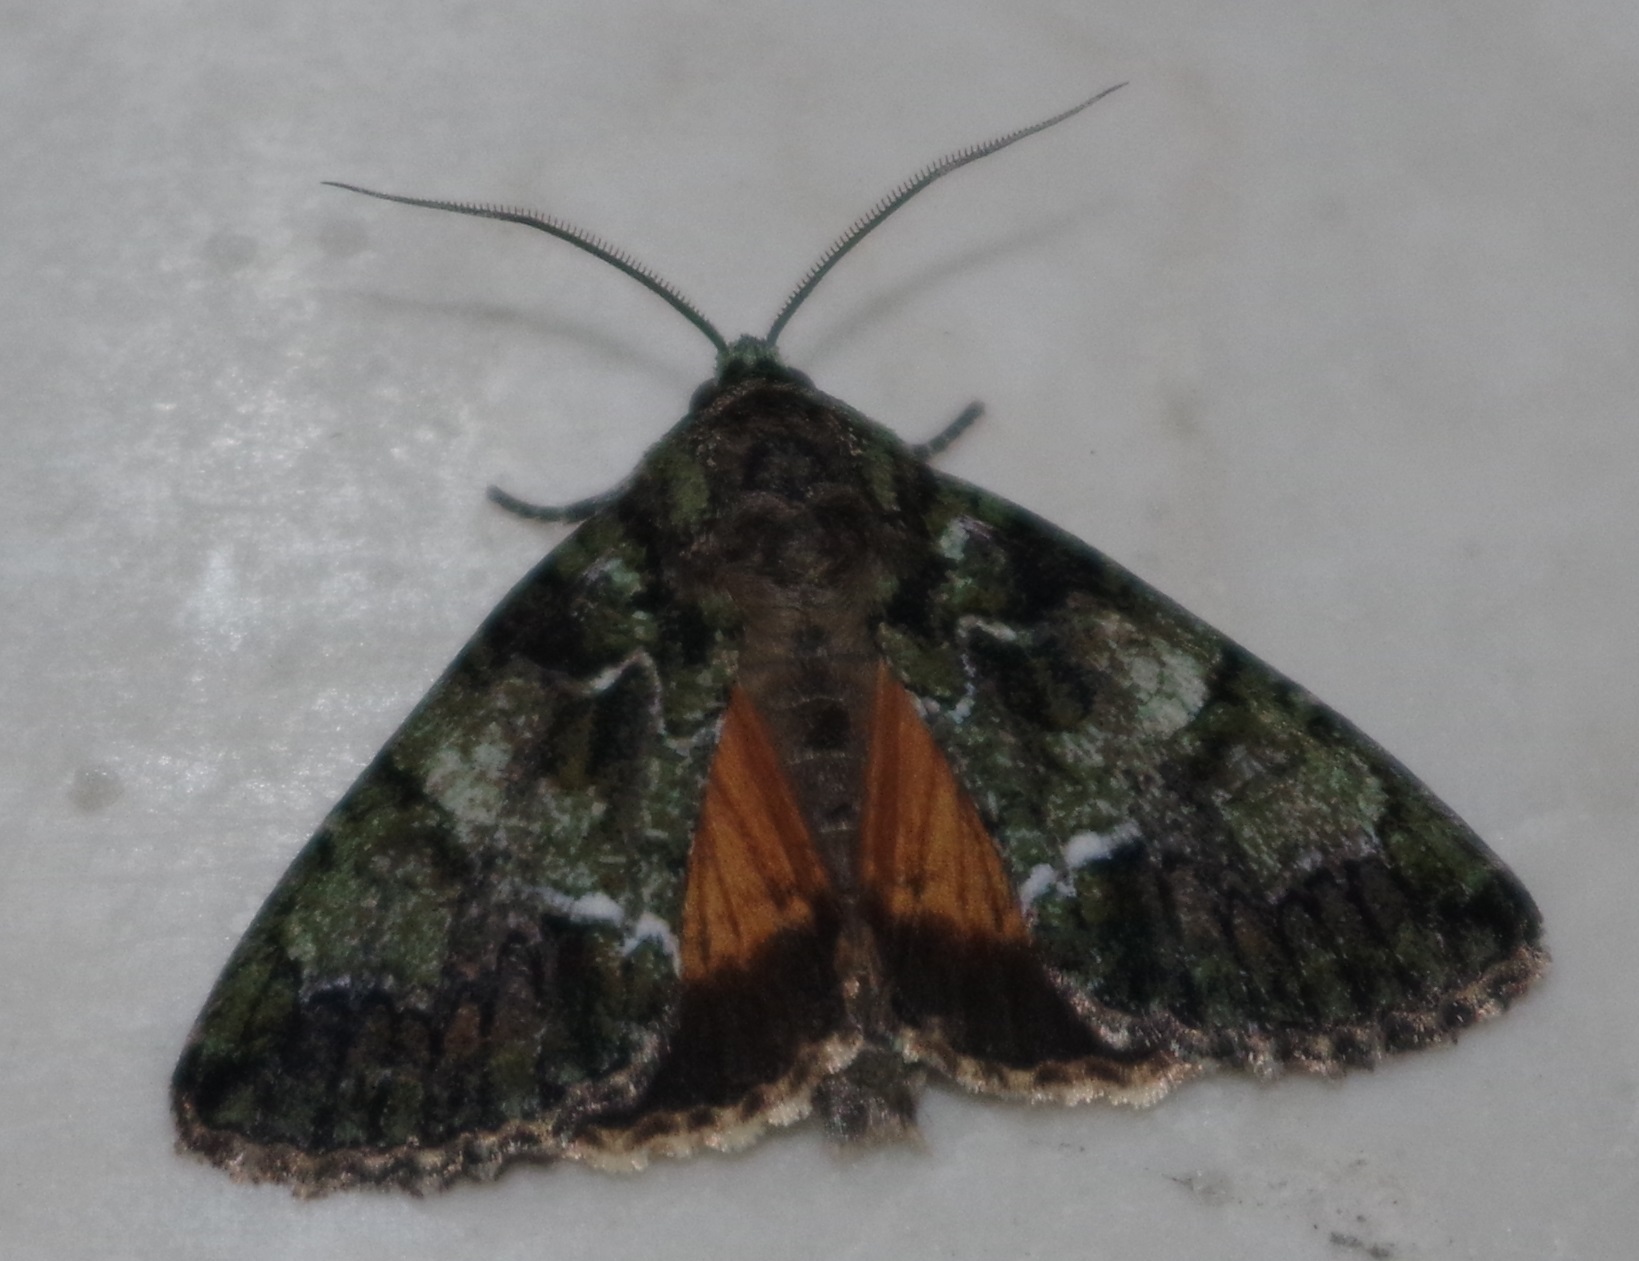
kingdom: Animalia
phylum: Arthropoda
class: Insecta
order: Lepidoptera
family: Noctuidae
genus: Polyphaenis
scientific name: Polyphaenis sericata
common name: Guernsey underwing
